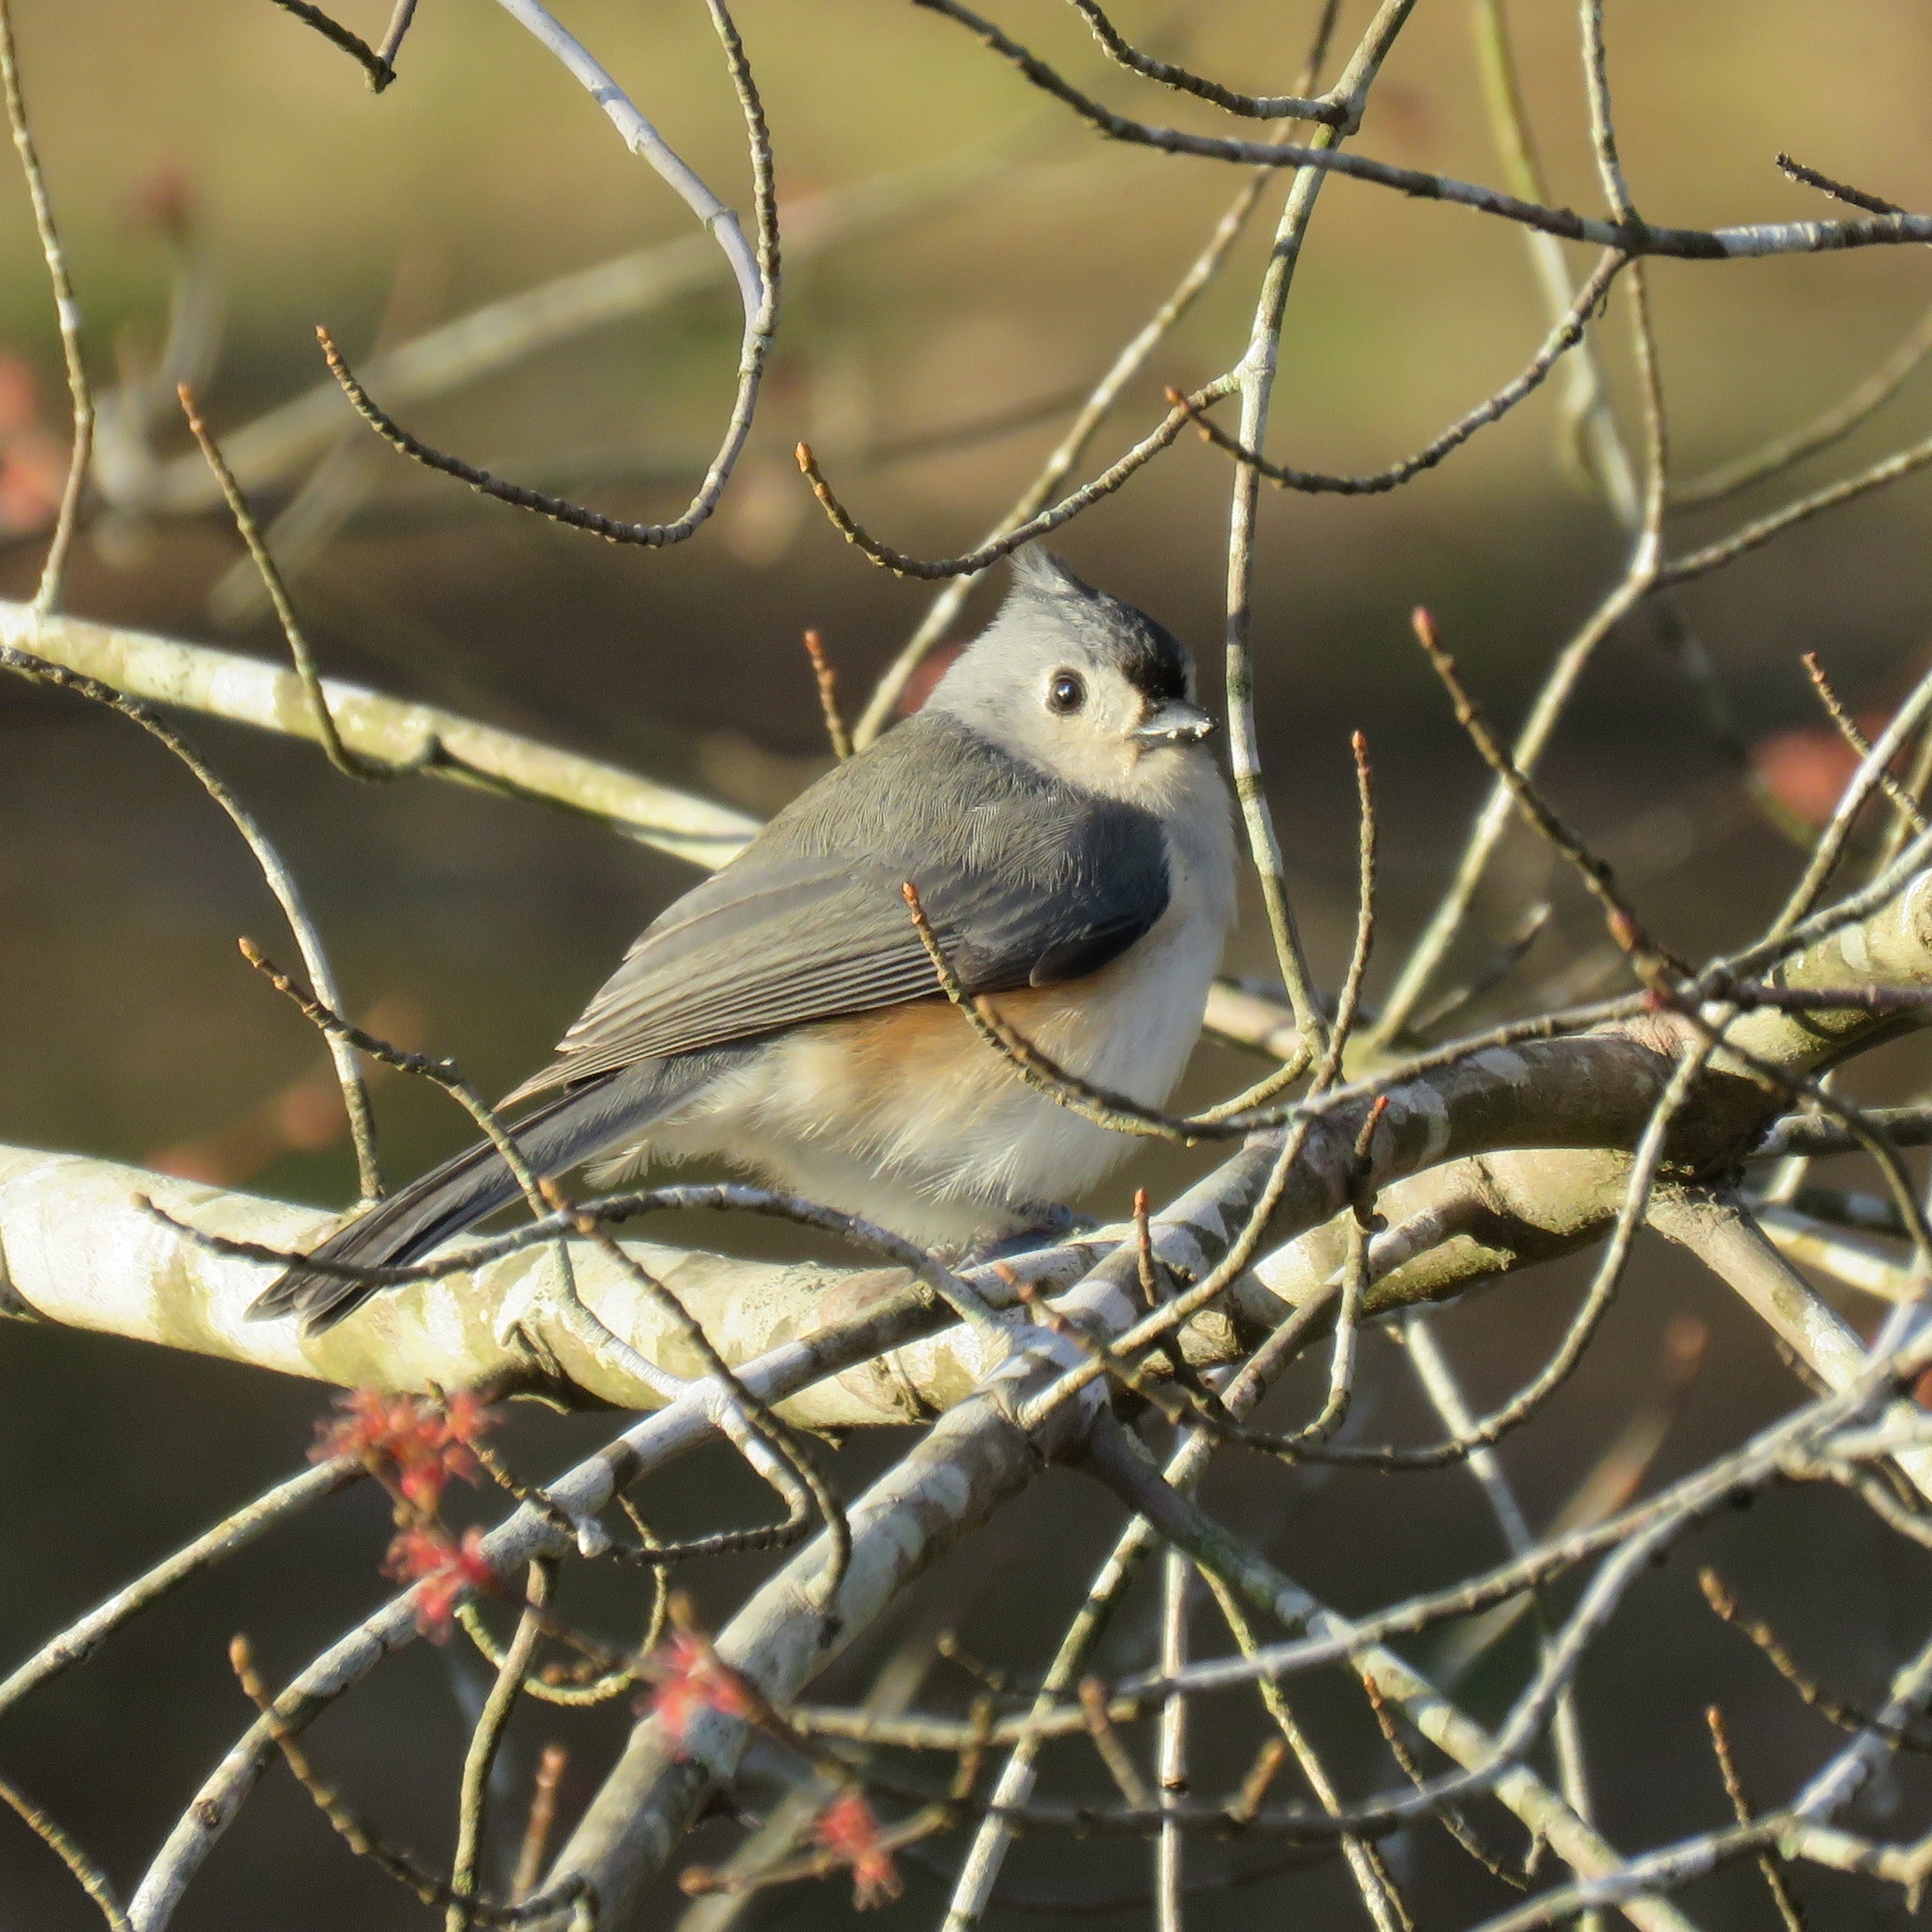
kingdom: Animalia
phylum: Chordata
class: Aves
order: Passeriformes
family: Paridae
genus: Baeolophus
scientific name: Baeolophus bicolor
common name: Tufted titmouse
